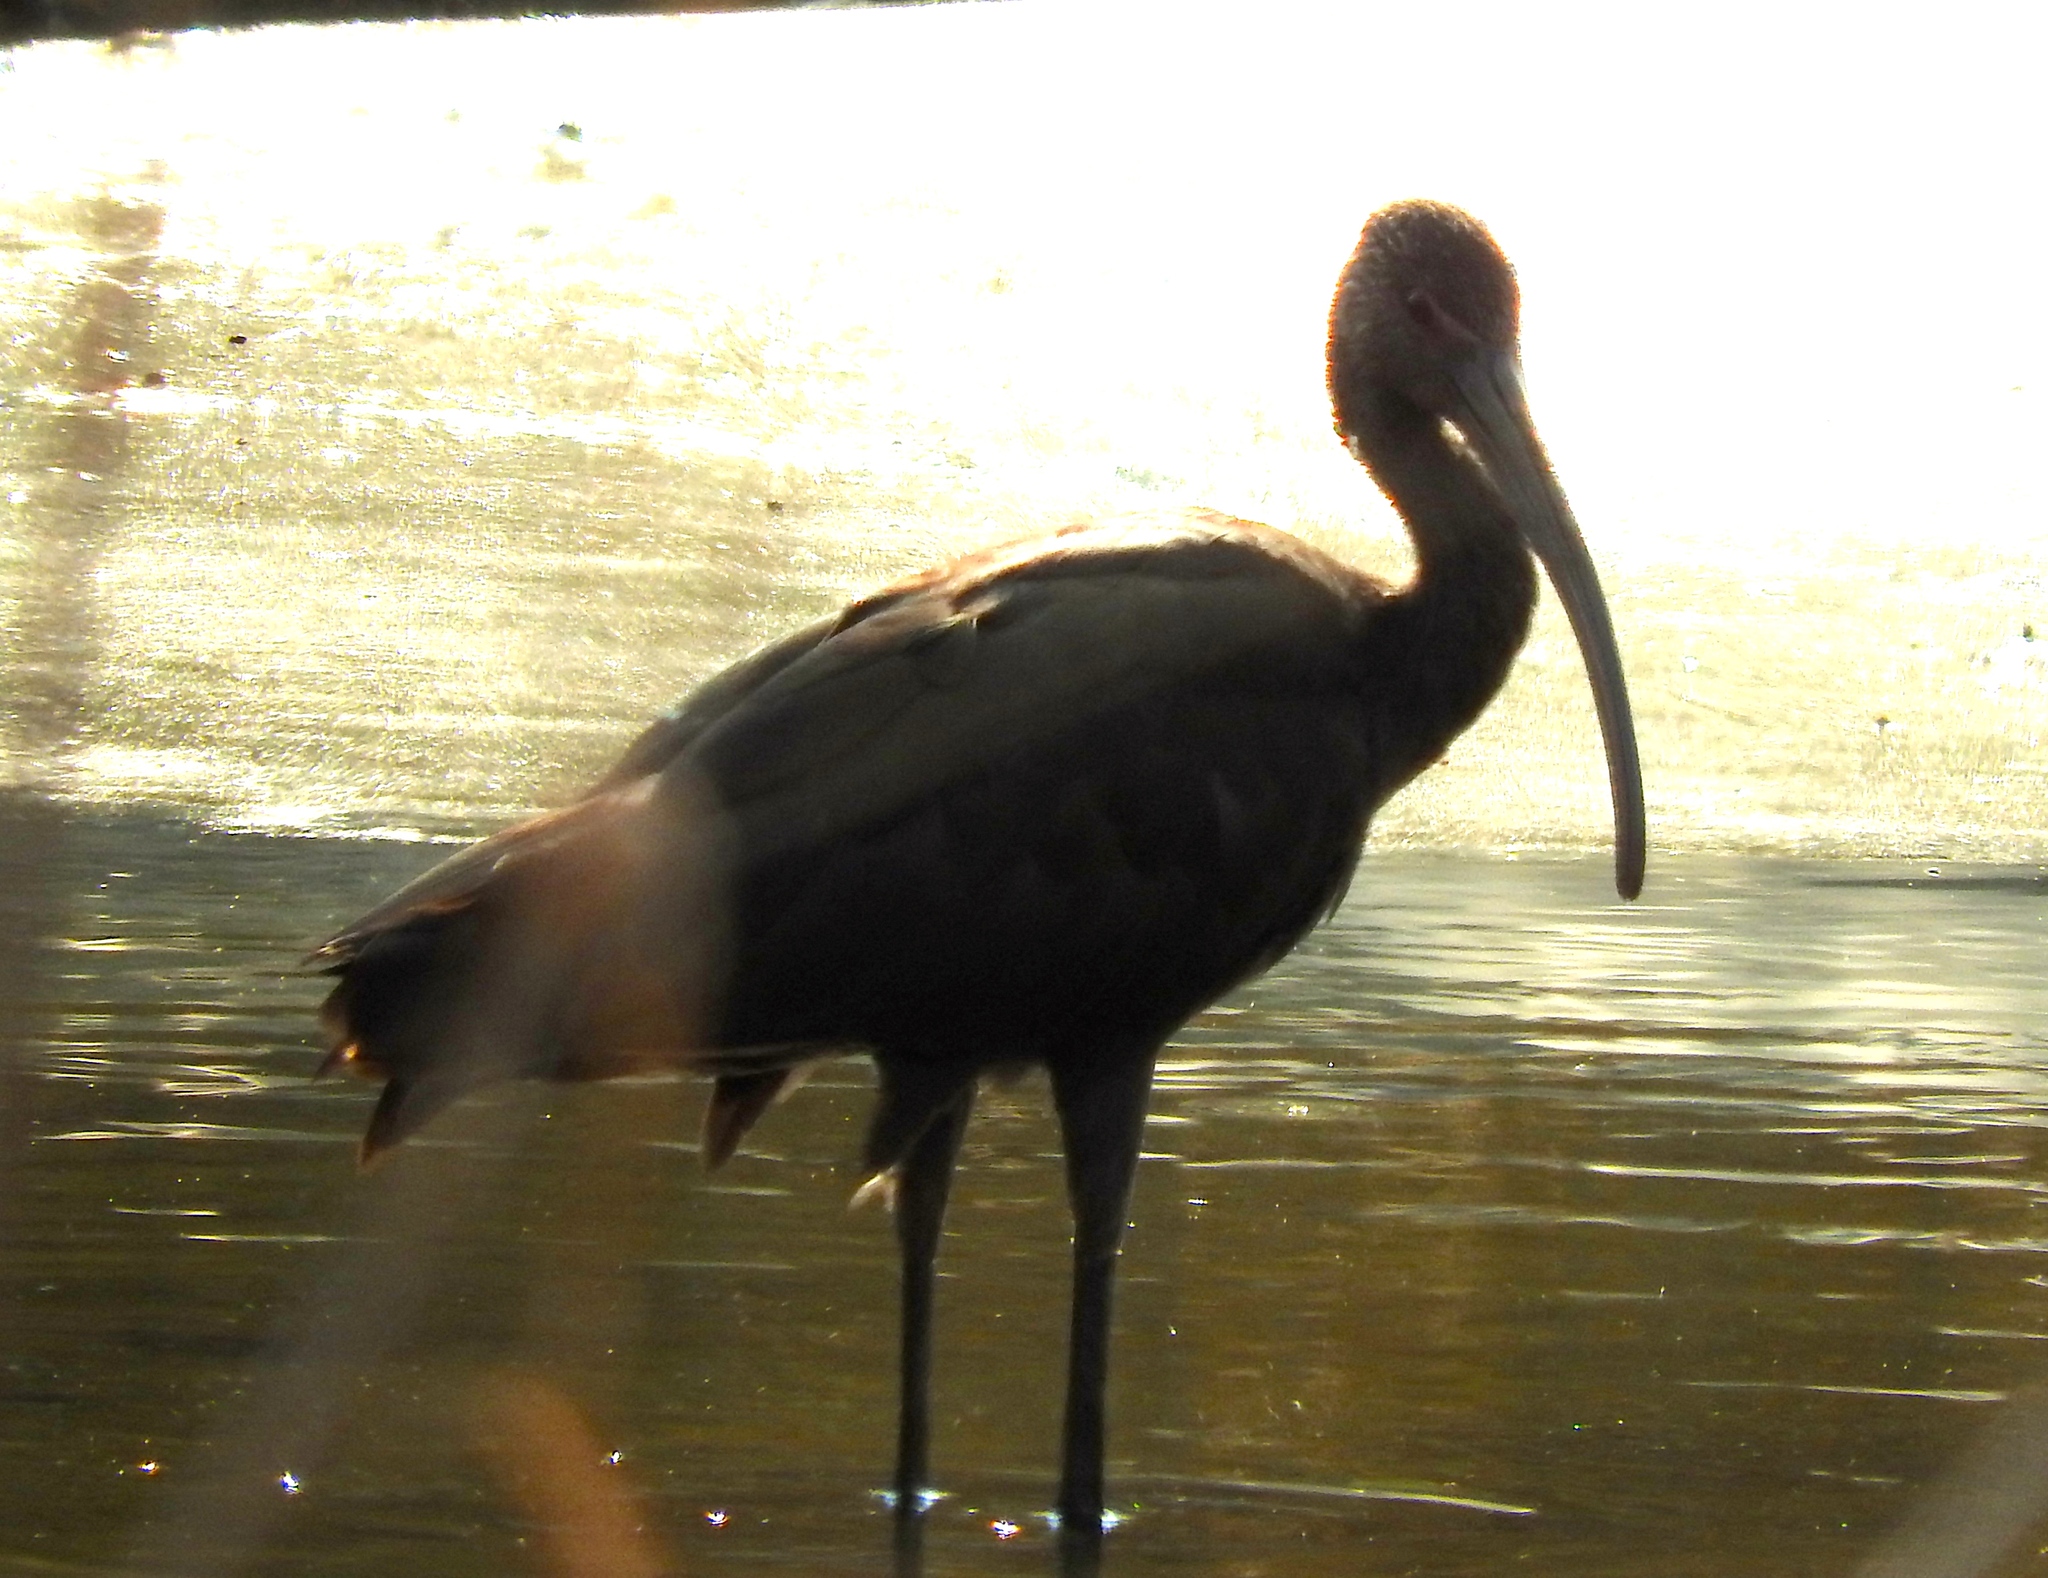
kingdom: Animalia
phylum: Chordata
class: Aves
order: Pelecaniformes
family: Threskiornithidae
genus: Plegadis
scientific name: Plegadis chihi
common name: White-faced ibis
